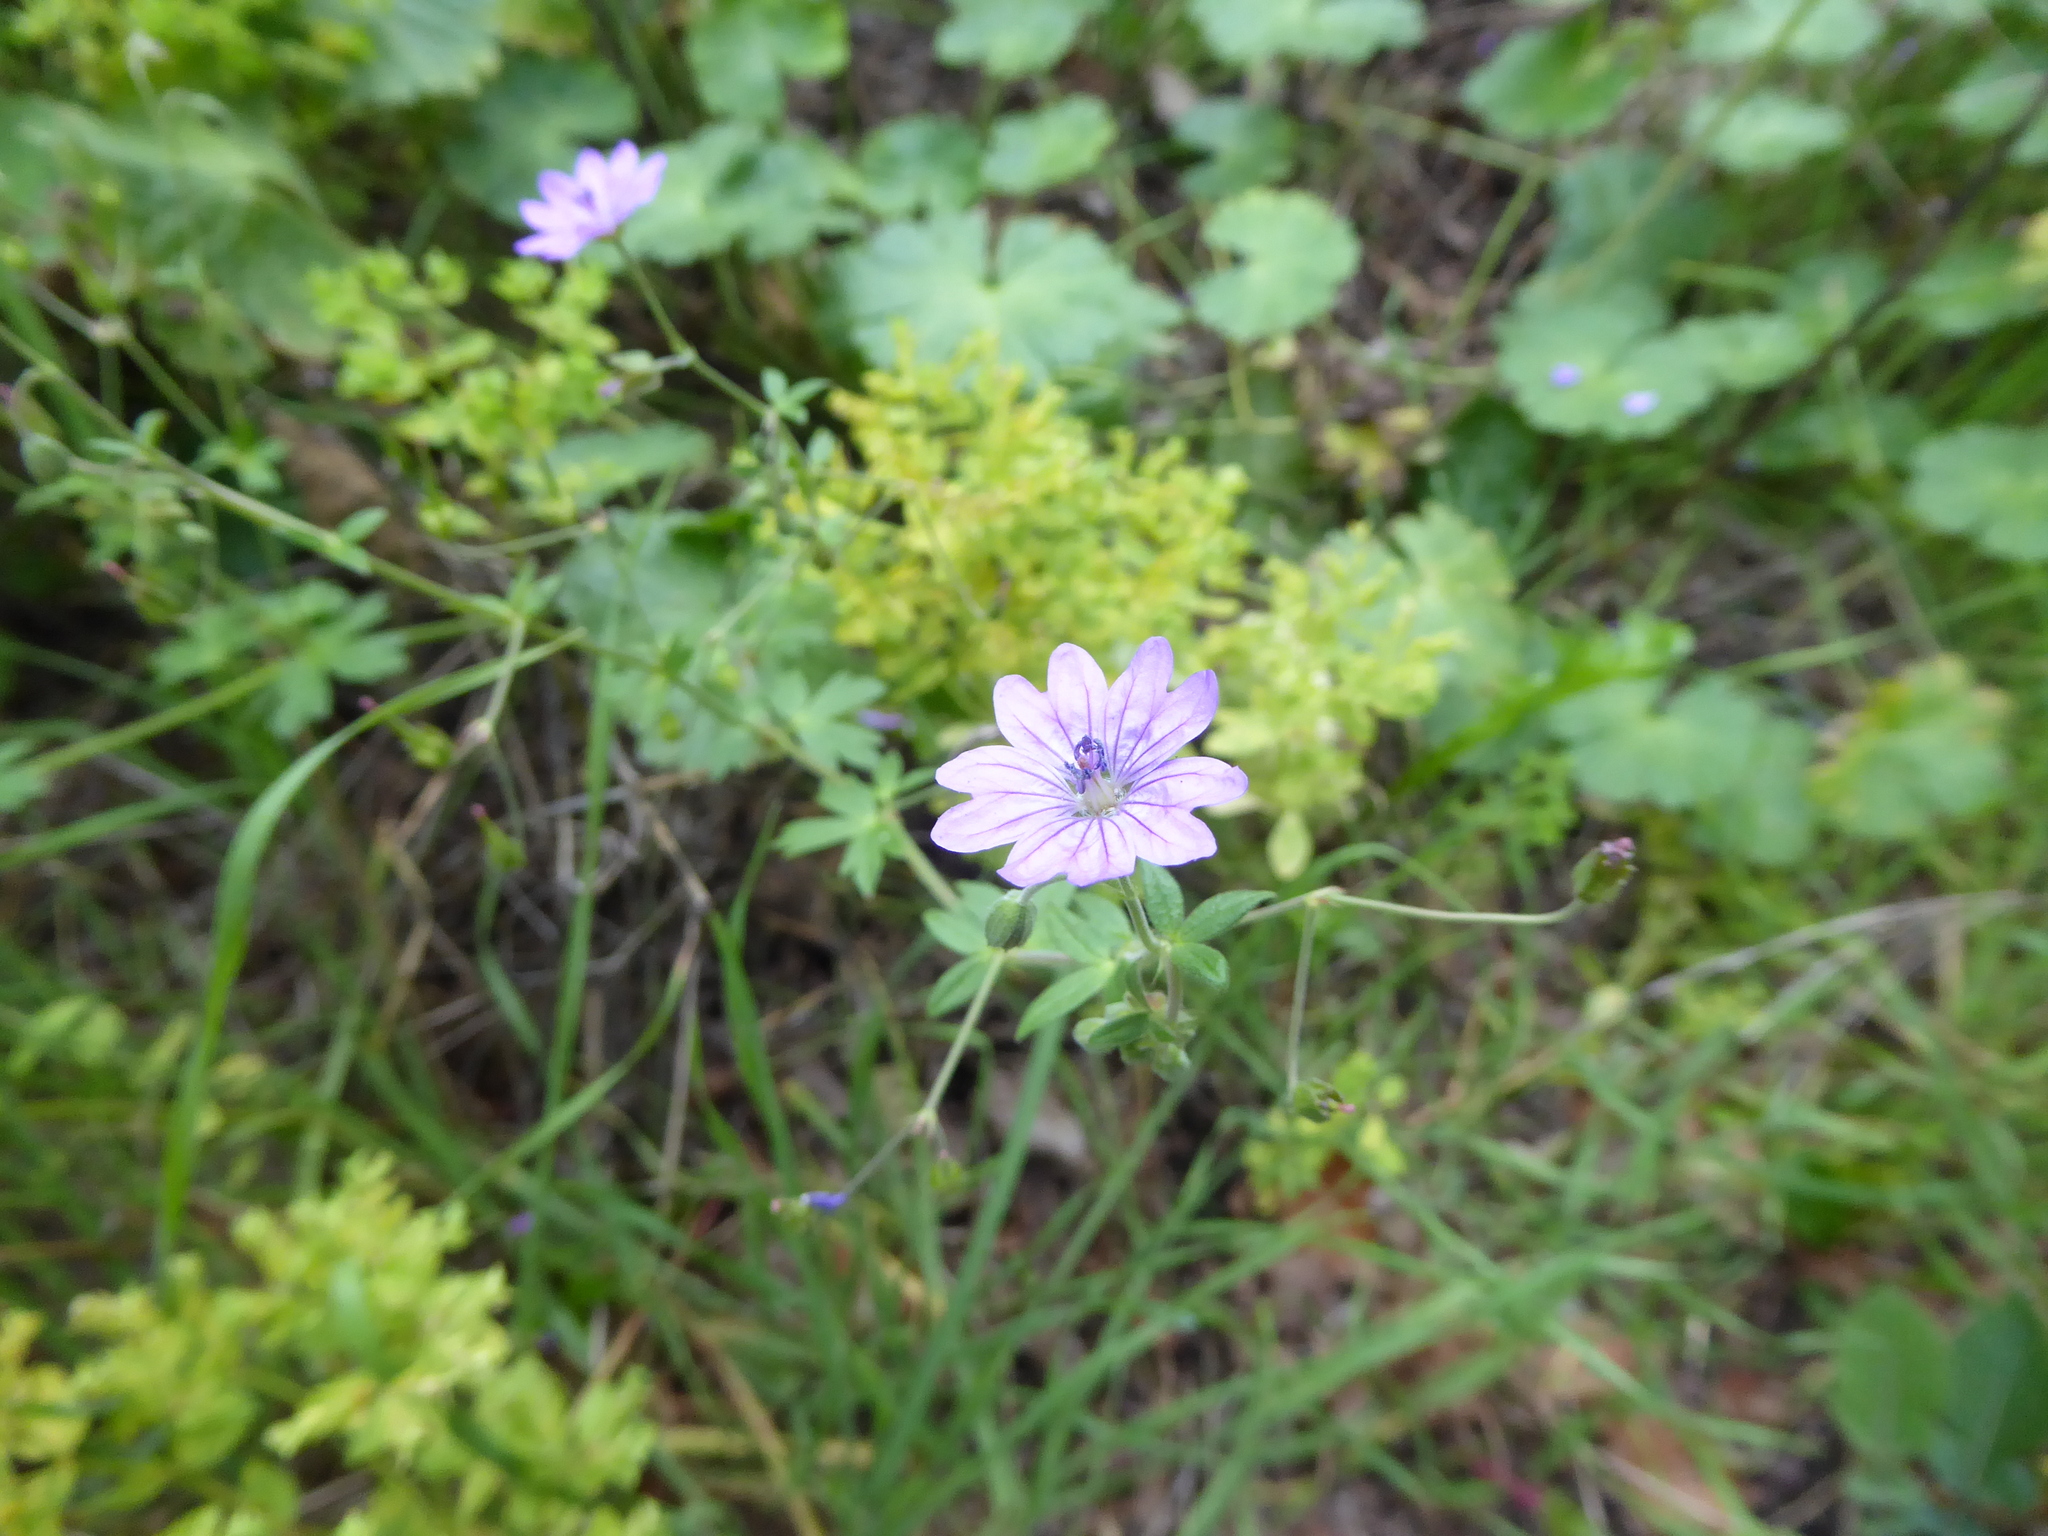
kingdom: Plantae
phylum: Tracheophyta
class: Magnoliopsida
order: Geraniales
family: Geraniaceae
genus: Geranium
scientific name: Geranium pyrenaicum
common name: Hedgerow crane's-bill
